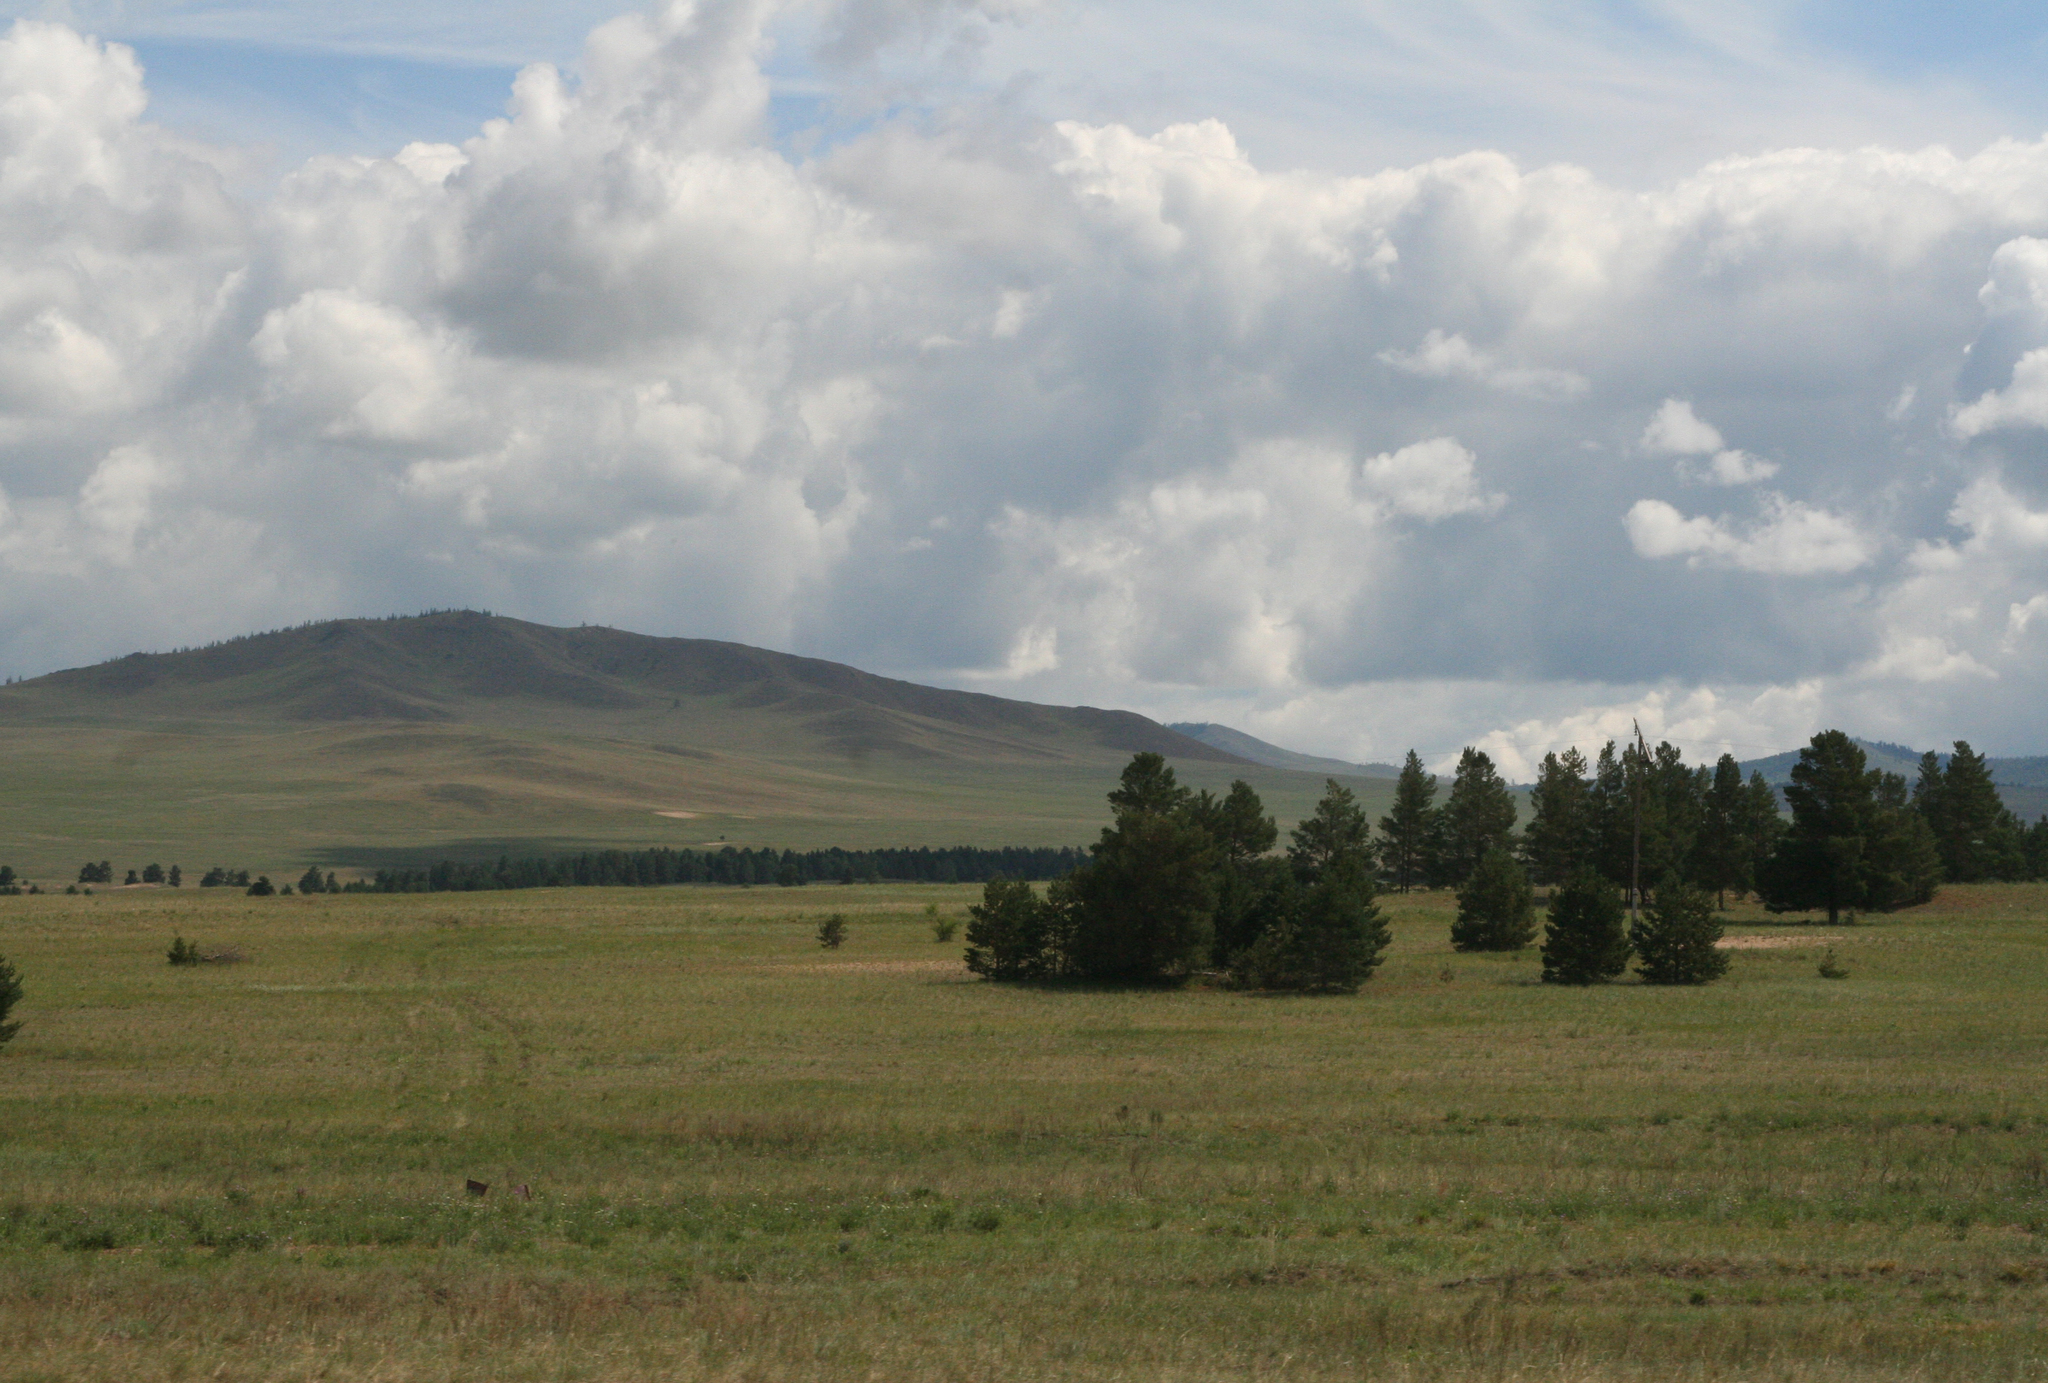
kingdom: Plantae
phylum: Tracheophyta
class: Pinopsida
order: Pinales
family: Pinaceae
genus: Pinus
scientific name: Pinus sylvestris
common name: Scots pine
